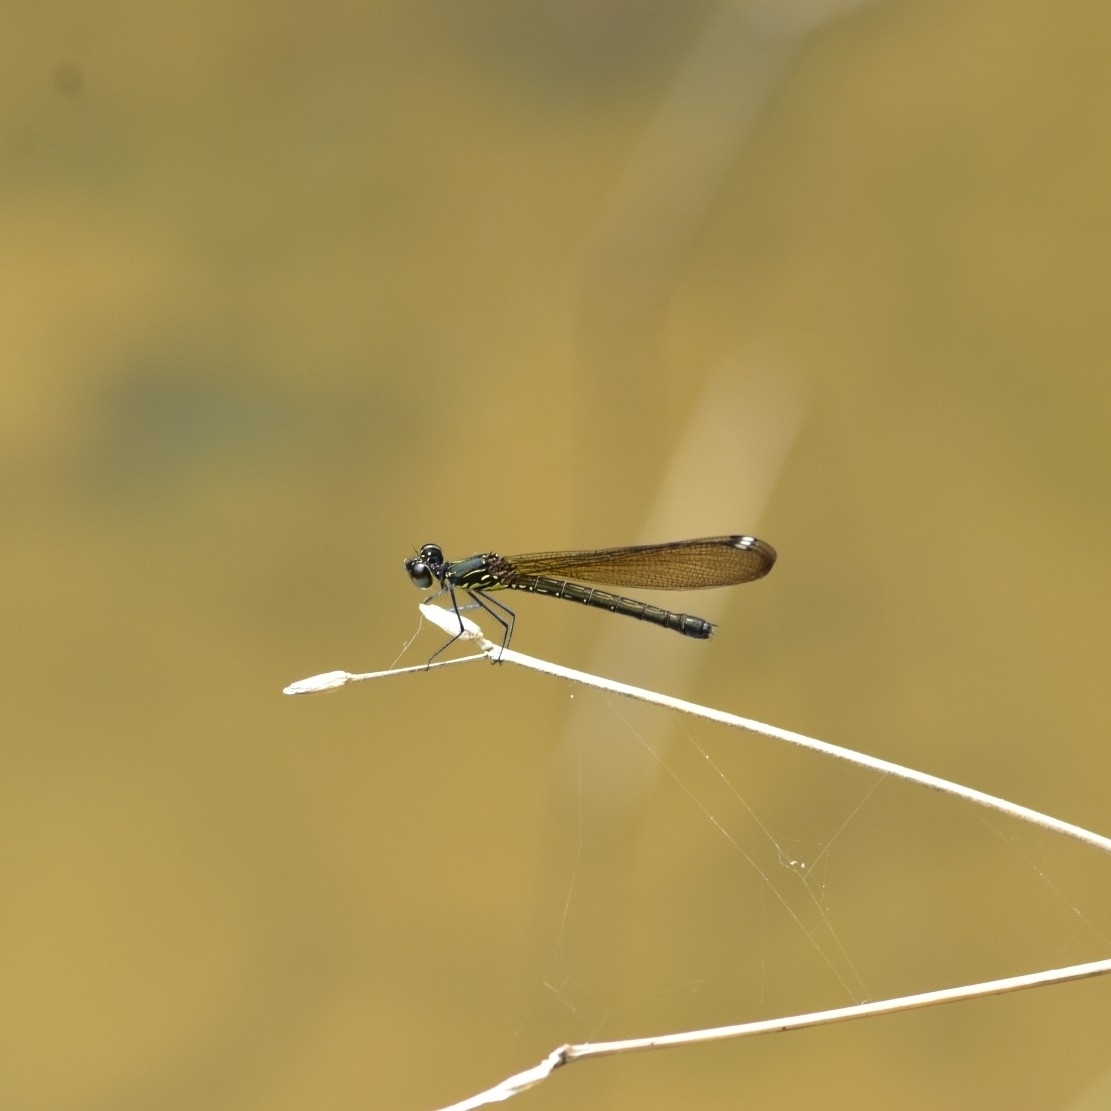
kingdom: Animalia
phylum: Arthropoda
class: Insecta
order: Odonata
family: Chlorocyphidae
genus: Heliocypha
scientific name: Heliocypha bisignata
